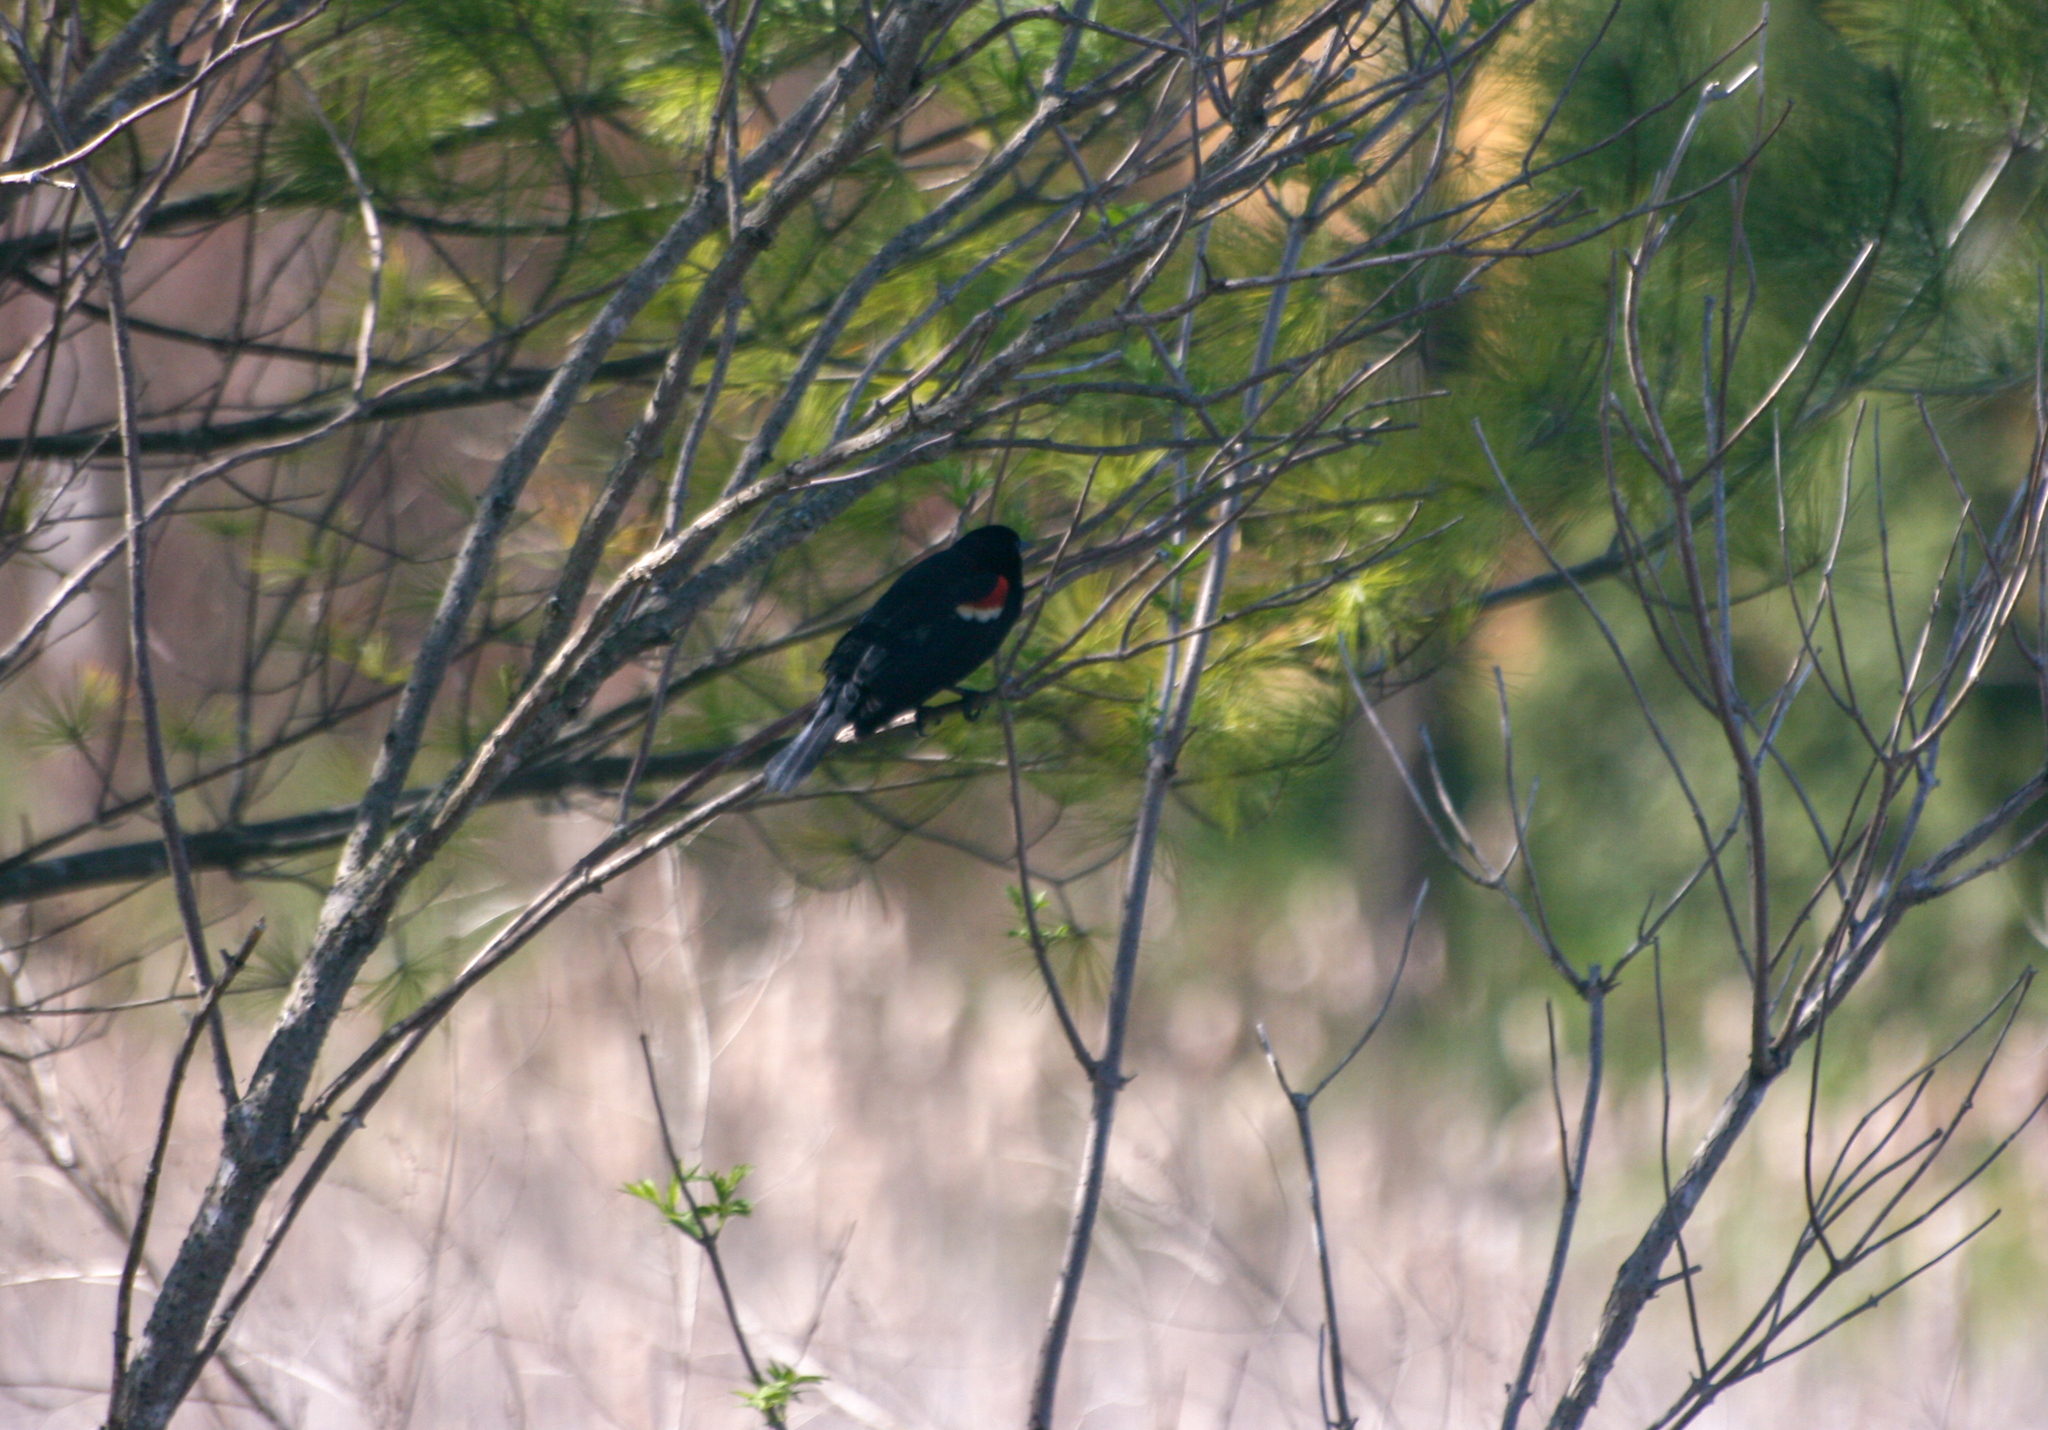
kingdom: Animalia
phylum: Chordata
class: Aves
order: Passeriformes
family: Icteridae
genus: Agelaius
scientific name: Agelaius phoeniceus
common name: Red-winged blackbird
